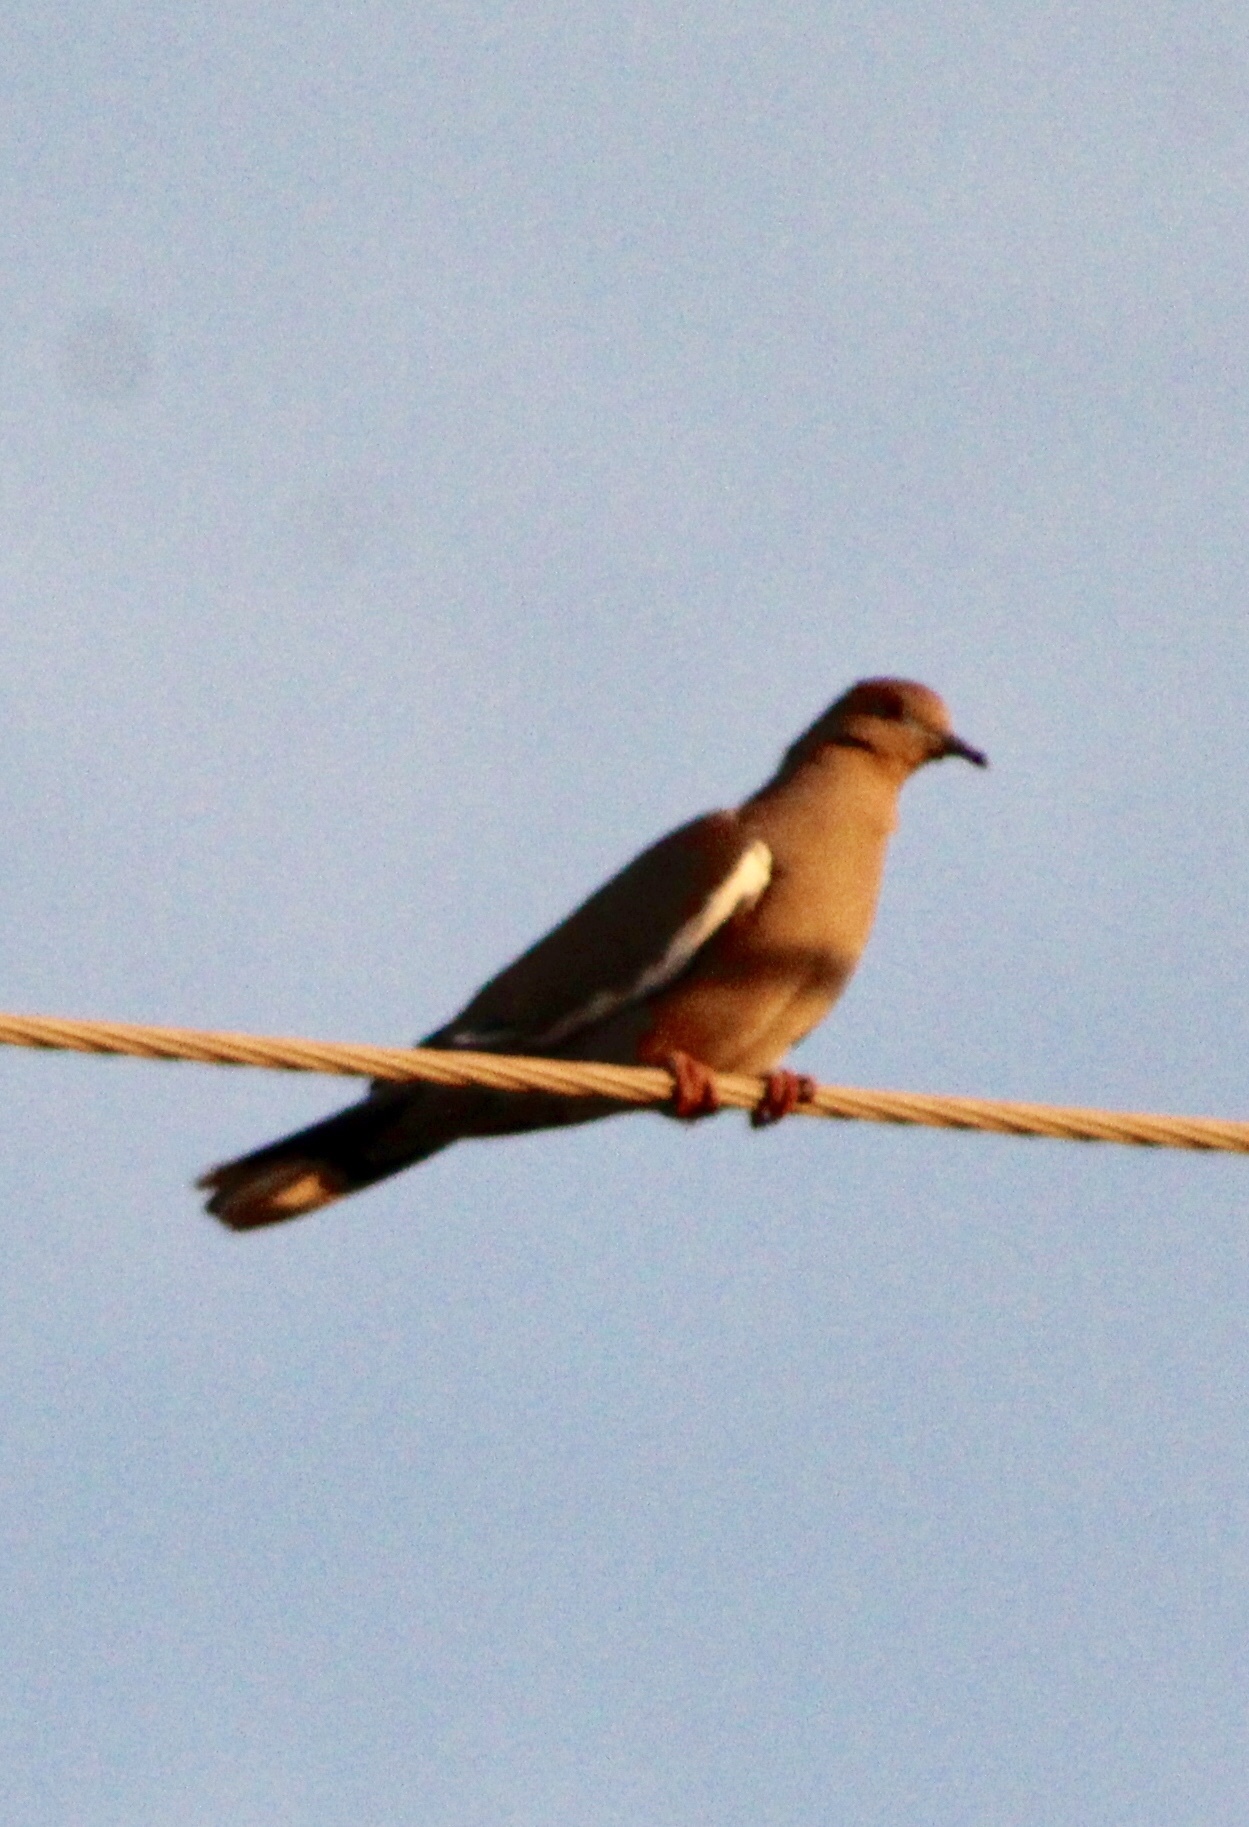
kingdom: Animalia
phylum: Chordata
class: Aves
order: Columbiformes
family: Columbidae
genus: Zenaida
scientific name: Zenaida asiatica
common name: White-winged dove
